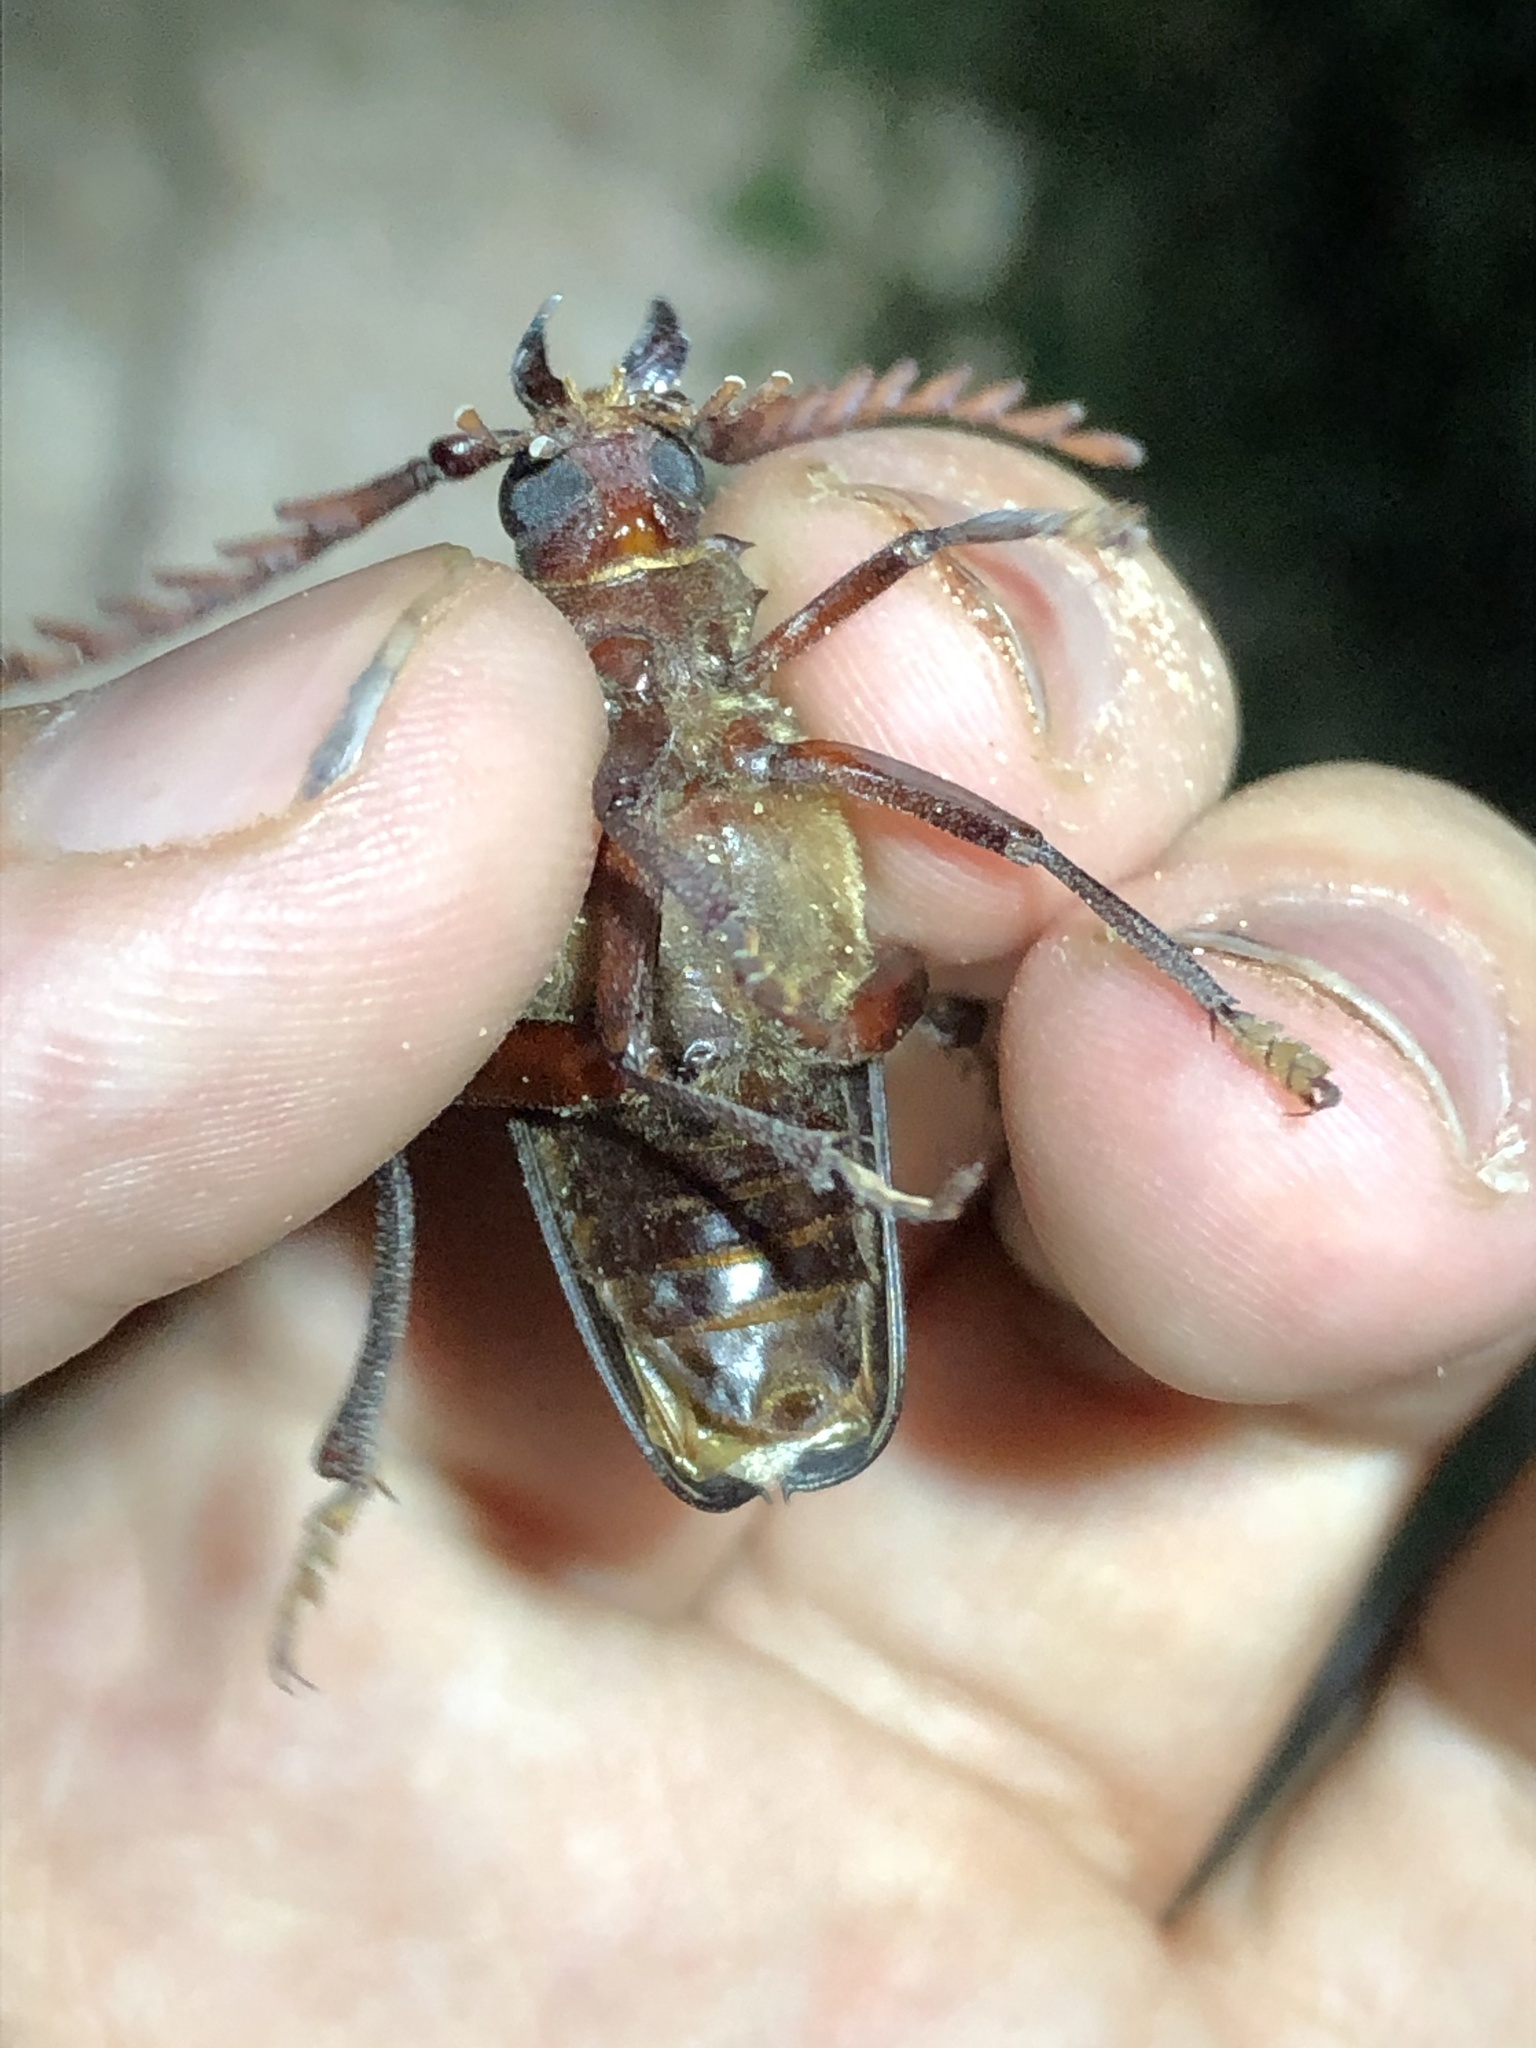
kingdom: Animalia
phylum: Arthropoda
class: Insecta
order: Coleoptera
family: Cerambycidae
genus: Prionus
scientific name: Prionus spinipennis
